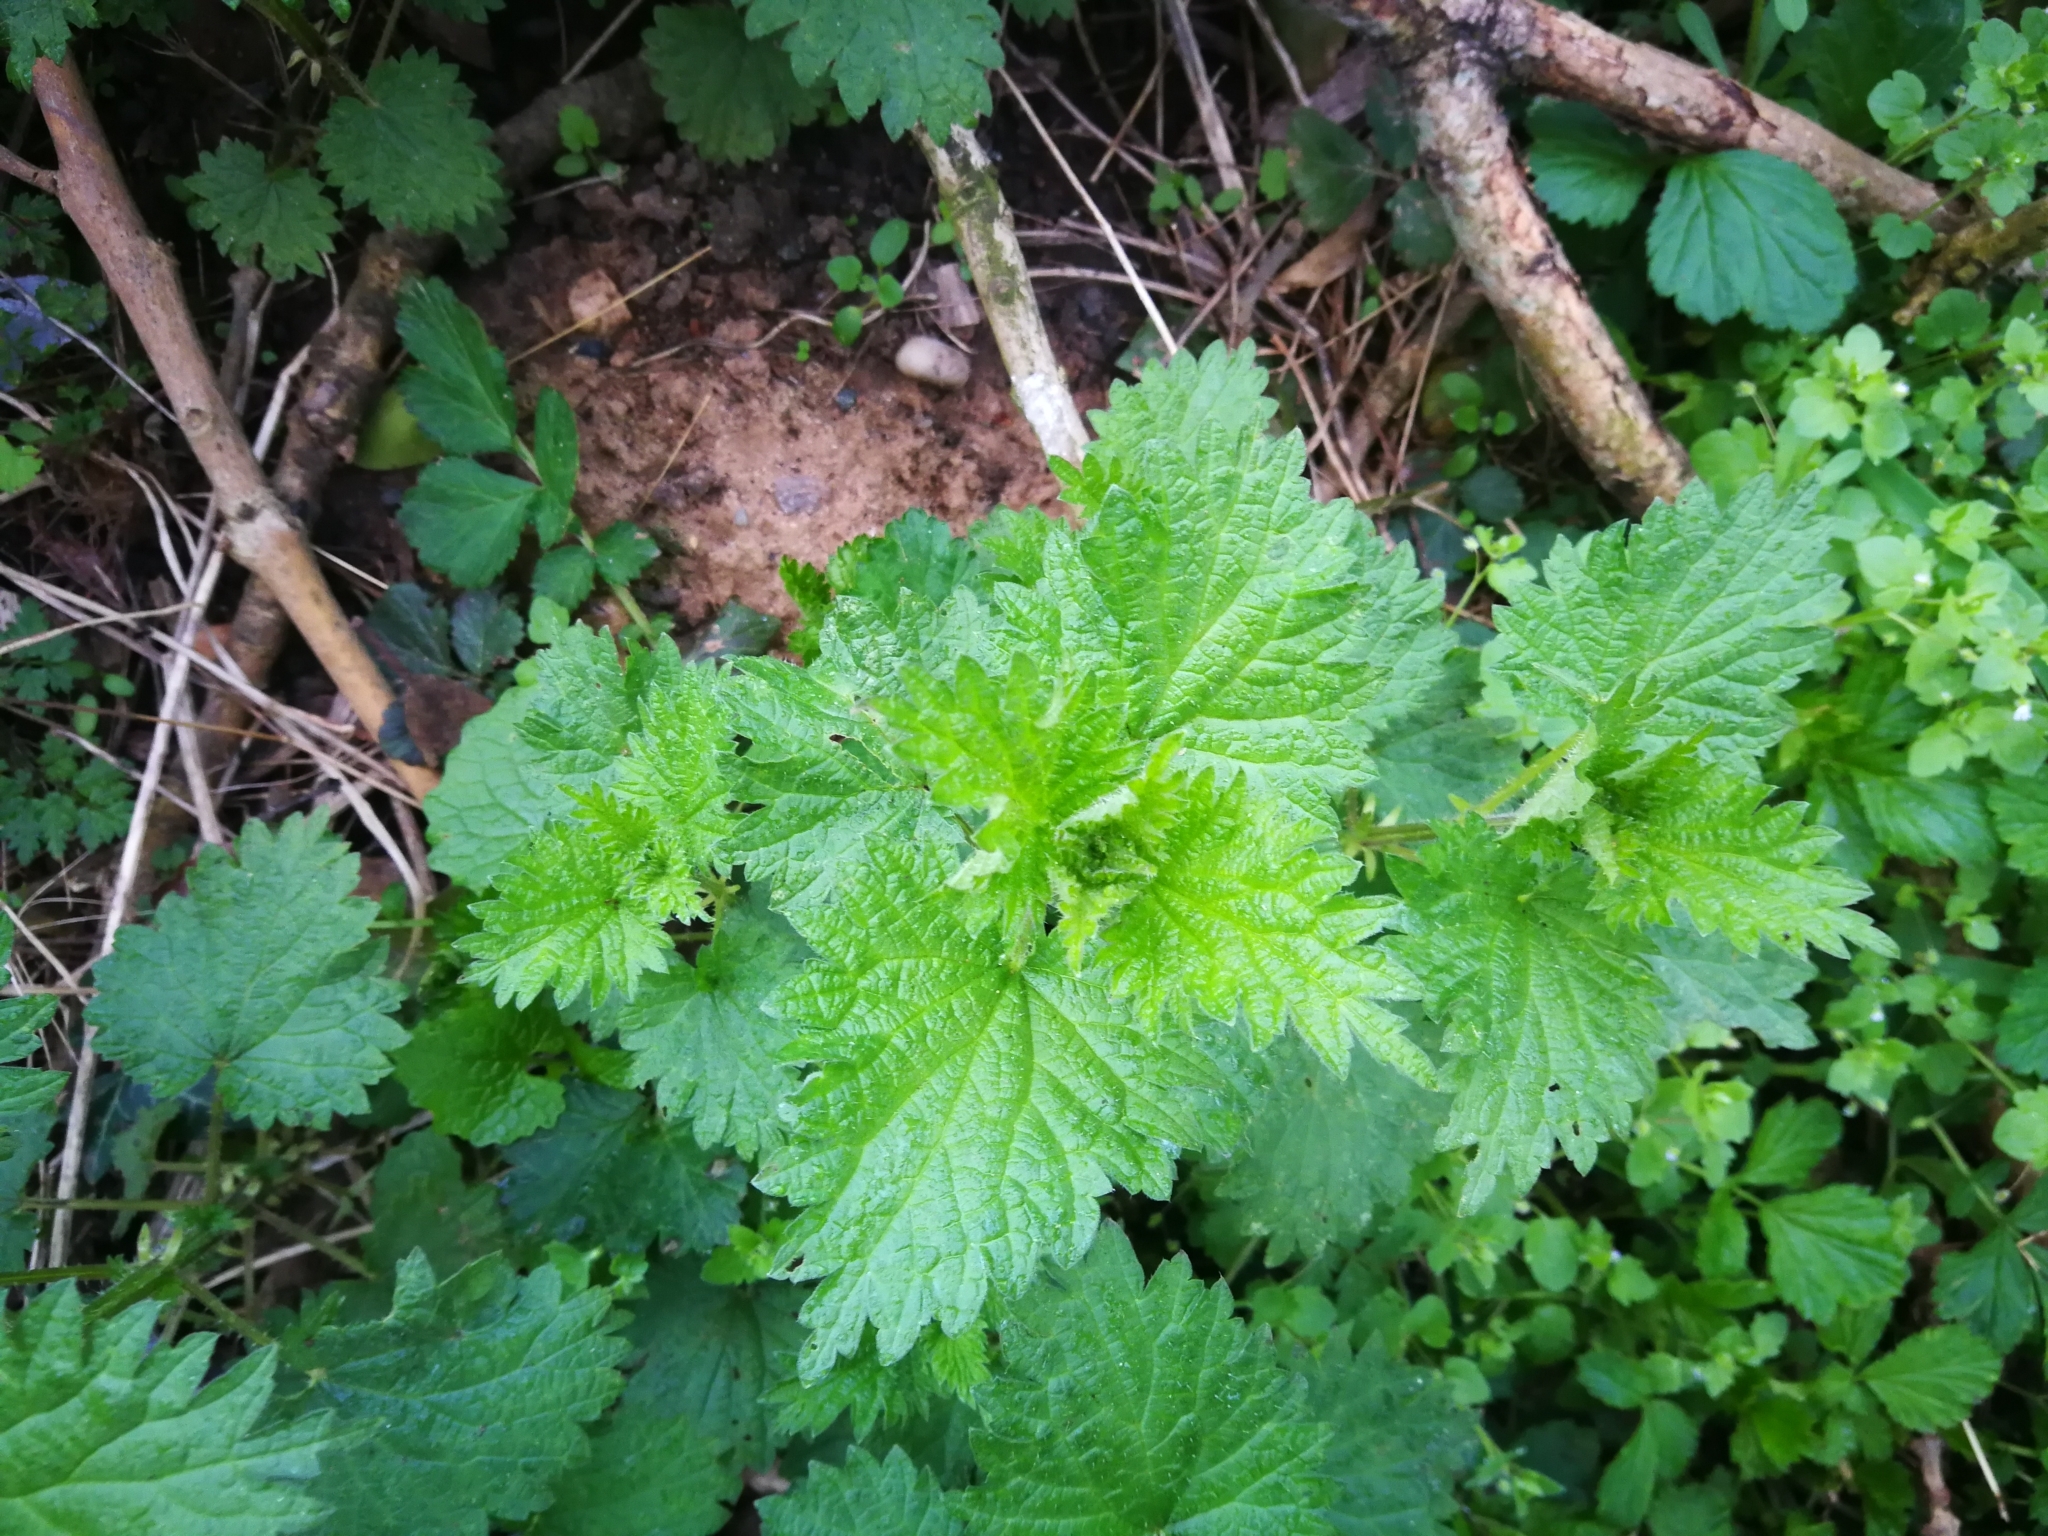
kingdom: Plantae
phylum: Tracheophyta
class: Magnoliopsida
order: Rosales
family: Urticaceae
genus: Urtica
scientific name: Urtica dioica
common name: Common nettle
